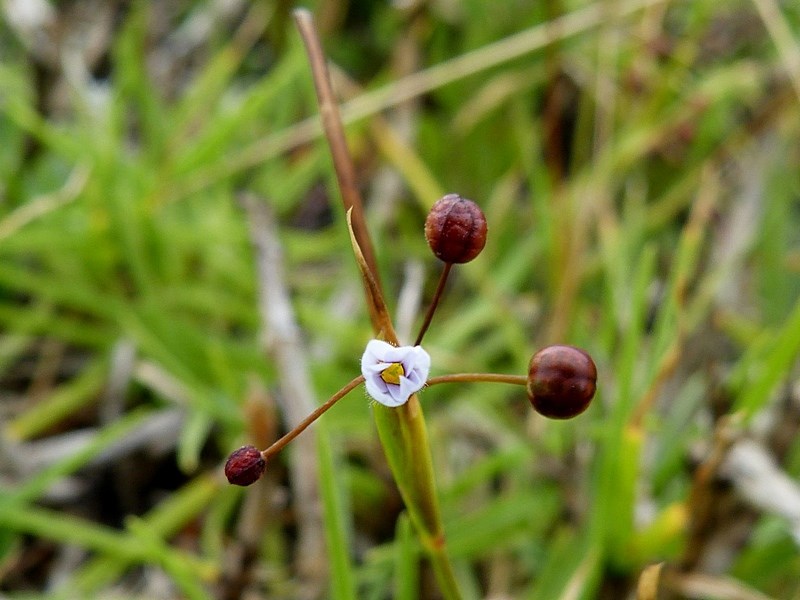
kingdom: Plantae
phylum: Tracheophyta
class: Liliopsida
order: Asparagales
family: Iridaceae
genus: Sisyrinchium
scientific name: Sisyrinchium micranthum
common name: Bermuda pigroot
